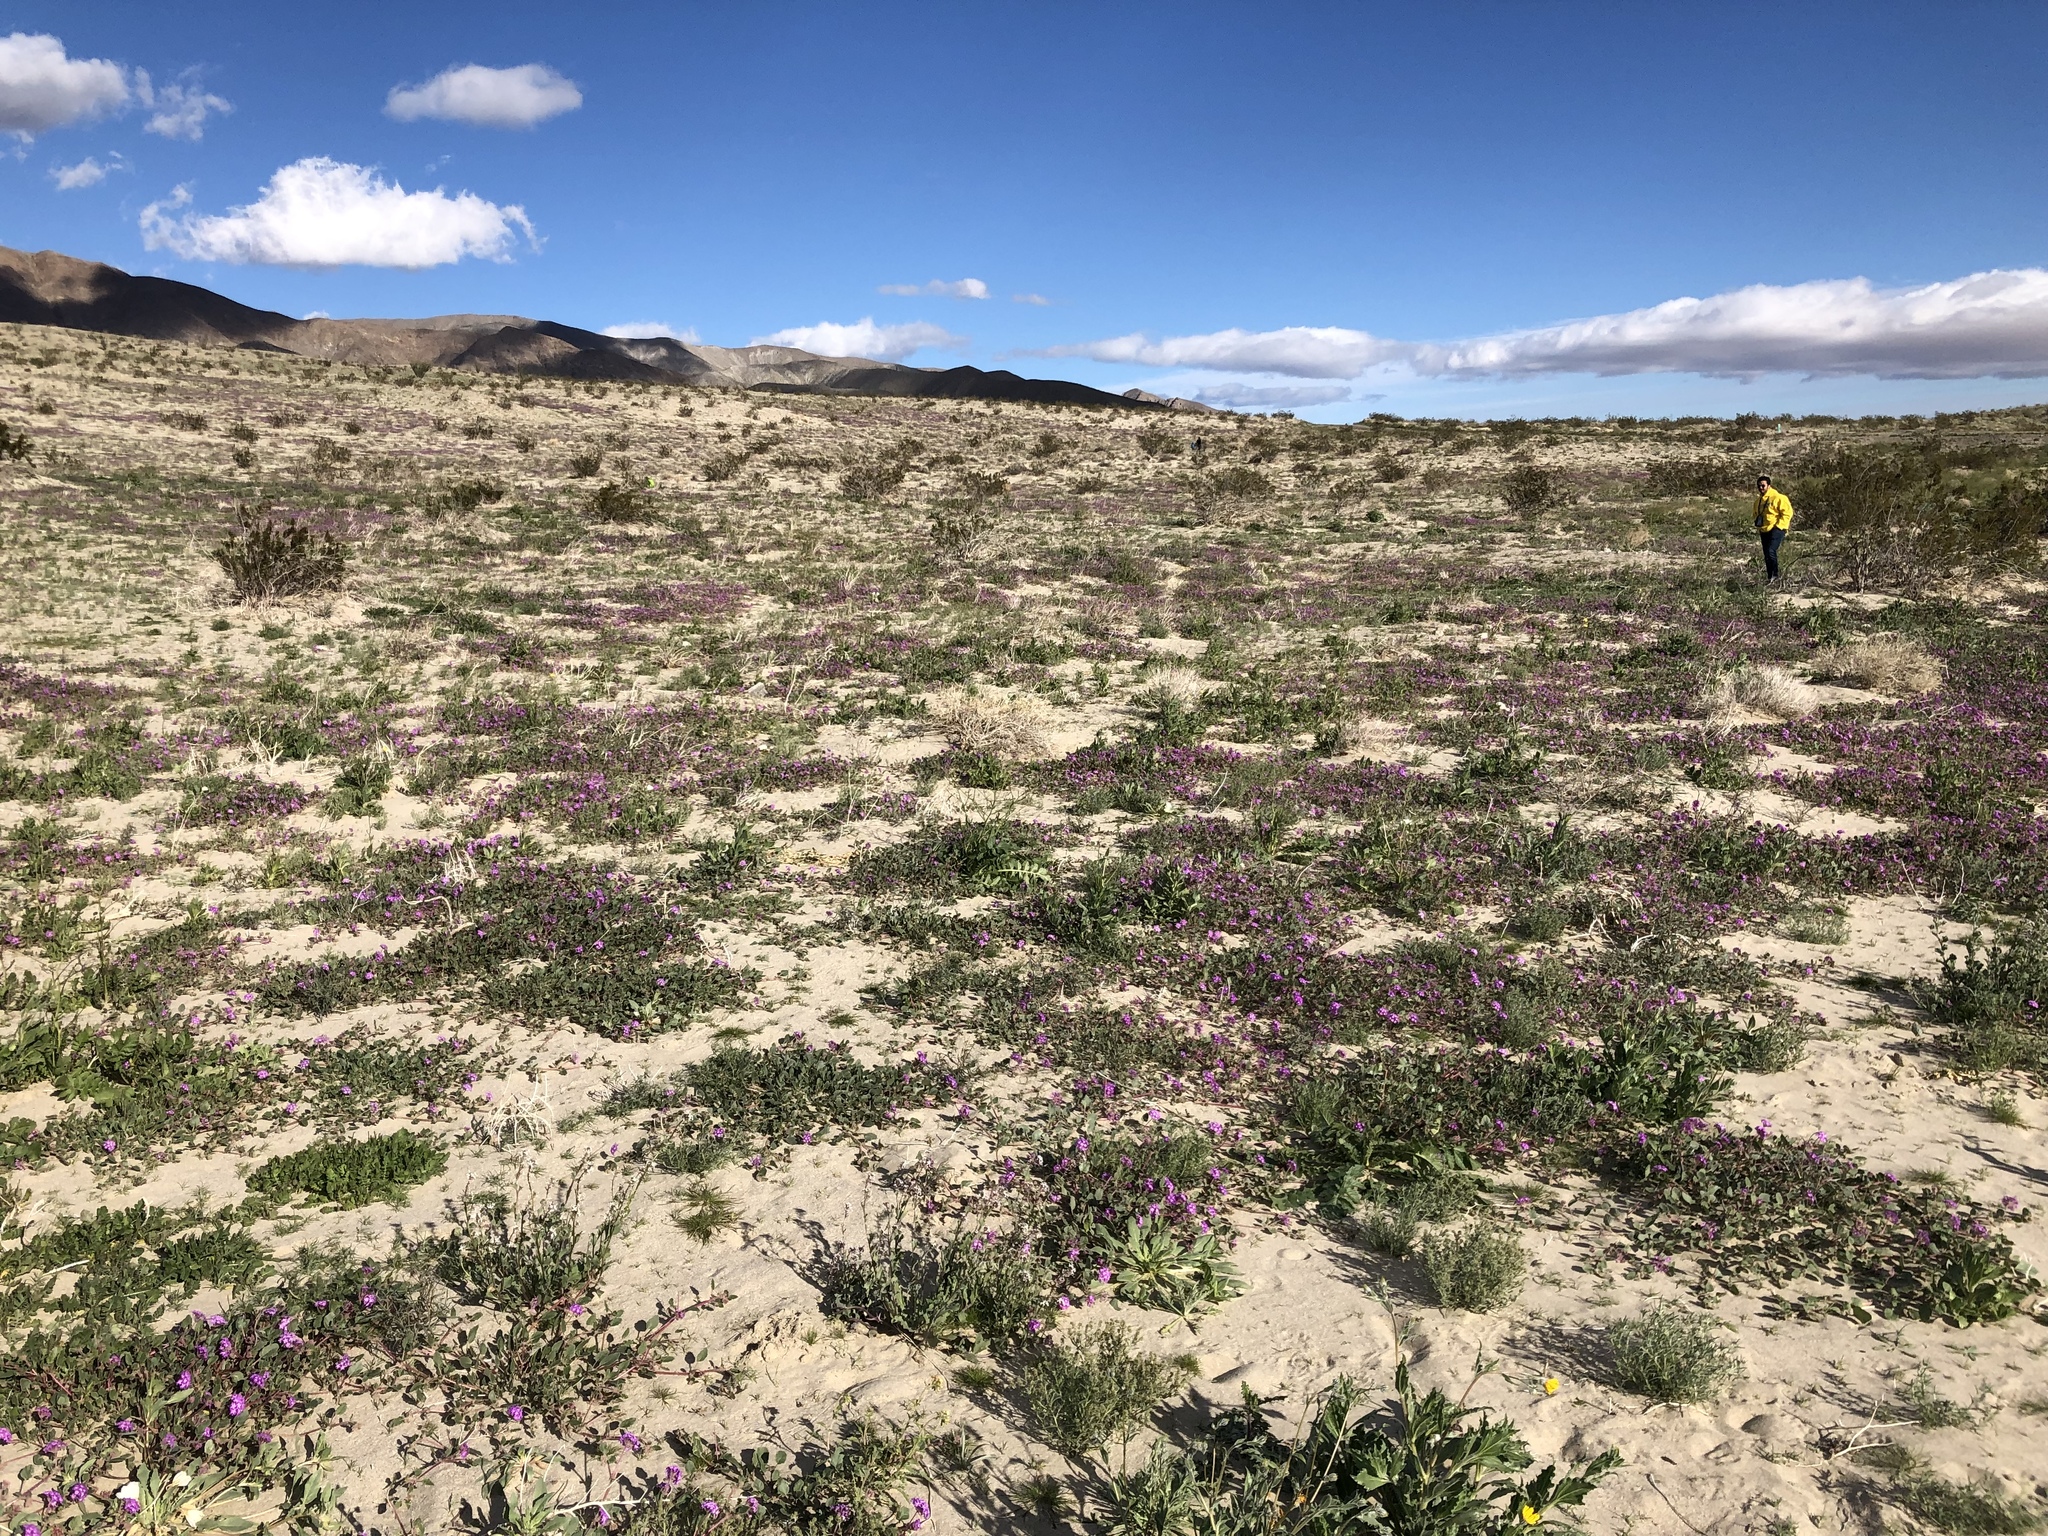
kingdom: Plantae
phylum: Tracheophyta
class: Magnoliopsida
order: Caryophyllales
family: Nyctaginaceae
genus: Abronia
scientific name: Abronia villosa
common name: Desert sand-verbena
